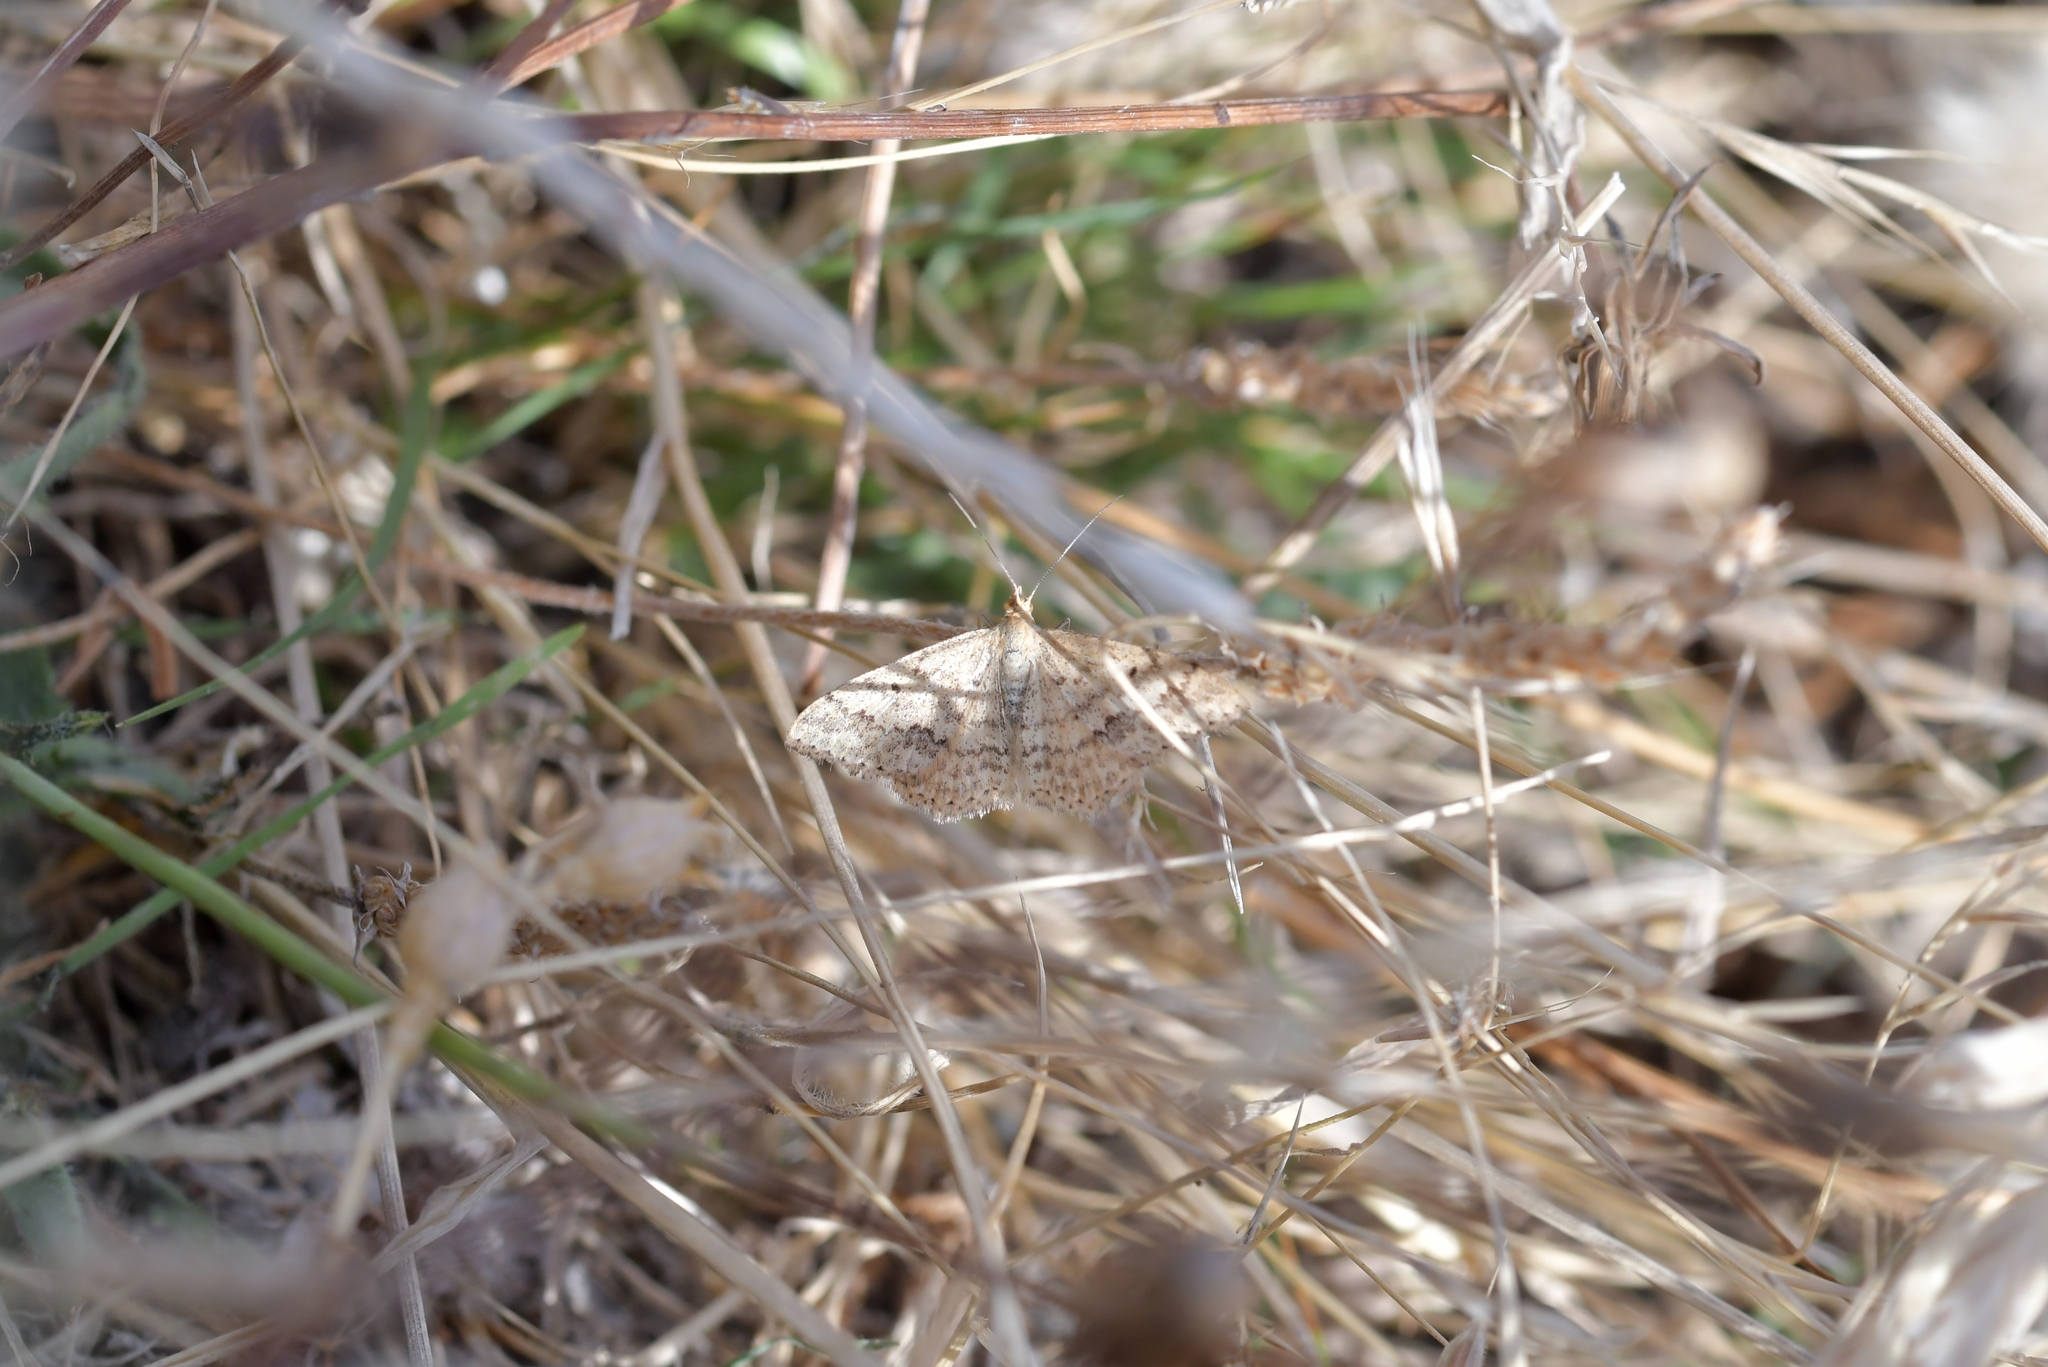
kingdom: Animalia
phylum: Arthropoda
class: Insecta
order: Lepidoptera
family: Geometridae
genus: Scopula
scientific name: Scopula rubraria
